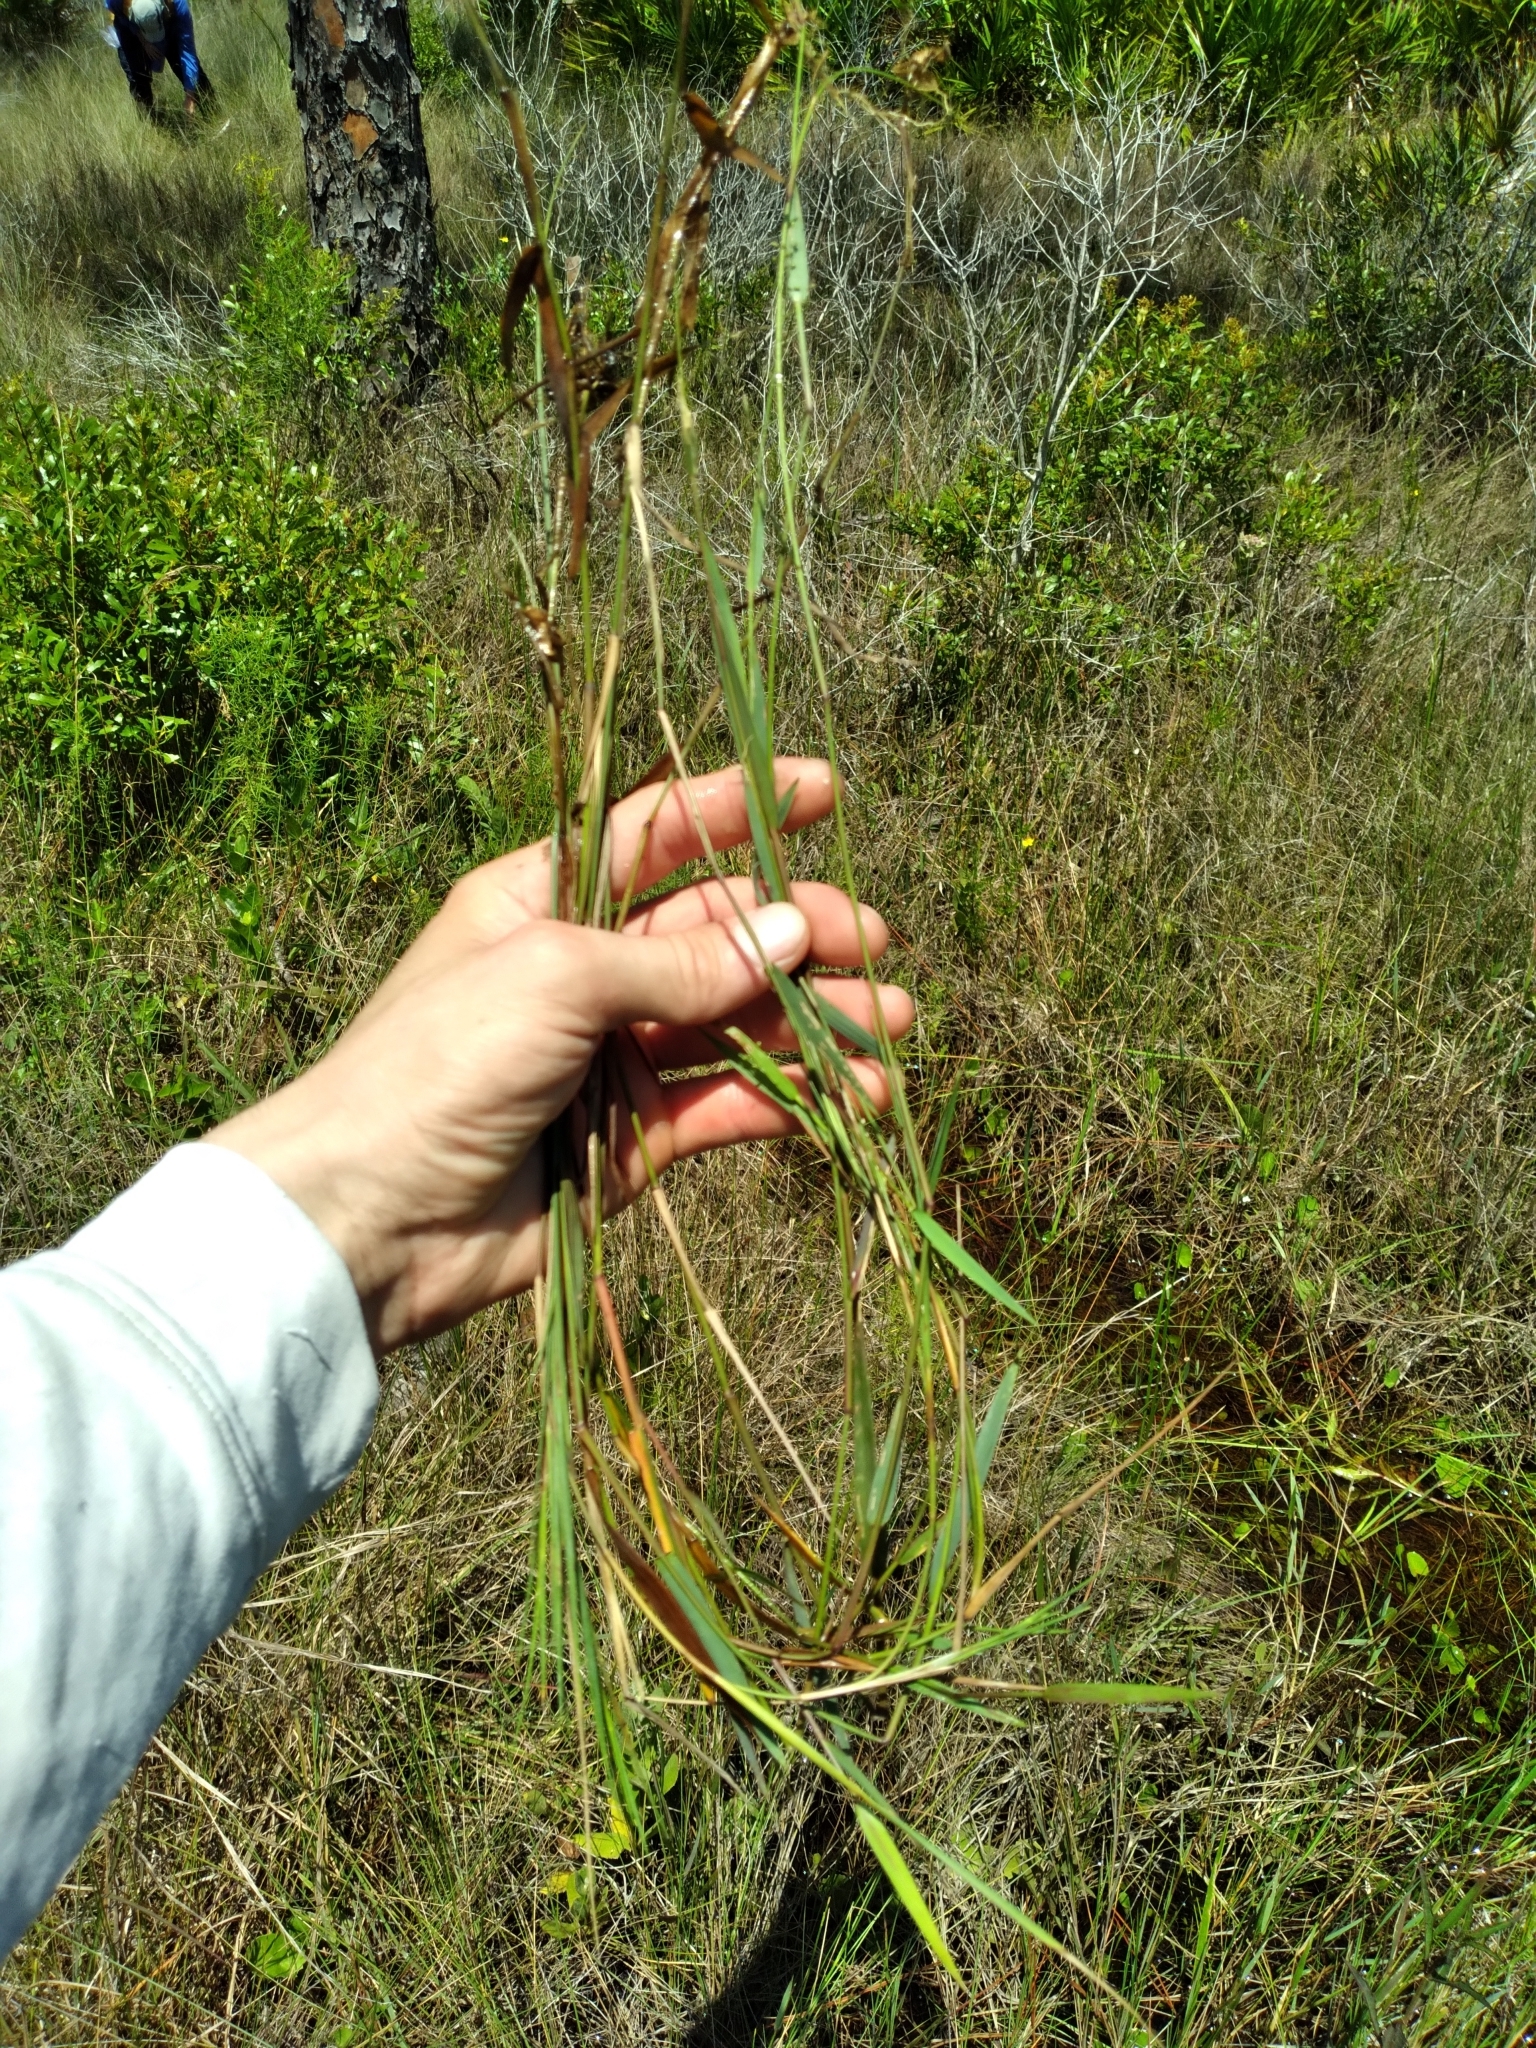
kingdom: Plantae
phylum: Tracheophyta
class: Liliopsida
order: Poales
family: Poaceae
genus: Dichanthelium
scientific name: Dichanthelium caerulescens
